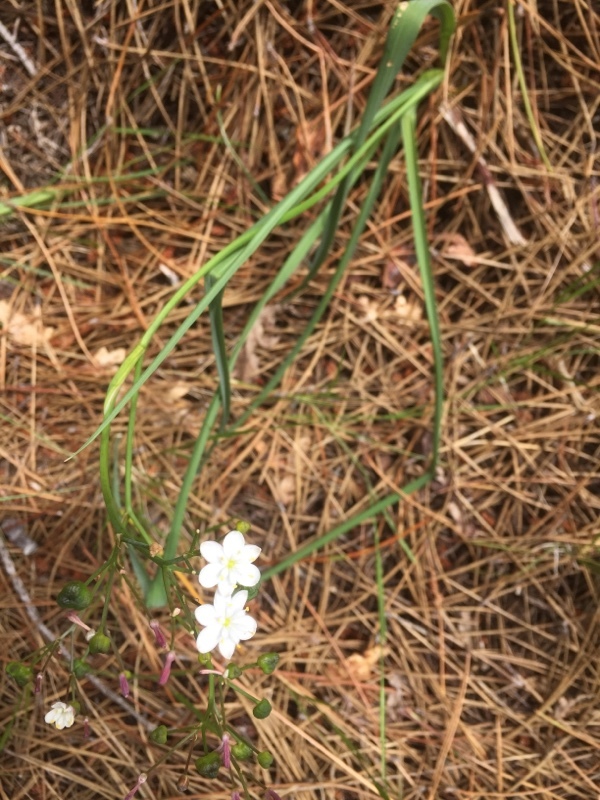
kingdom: Plantae
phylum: Tracheophyta
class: Liliopsida
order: Asparagales
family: Asphodelaceae
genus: Simethis
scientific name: Simethis mattiazzii
